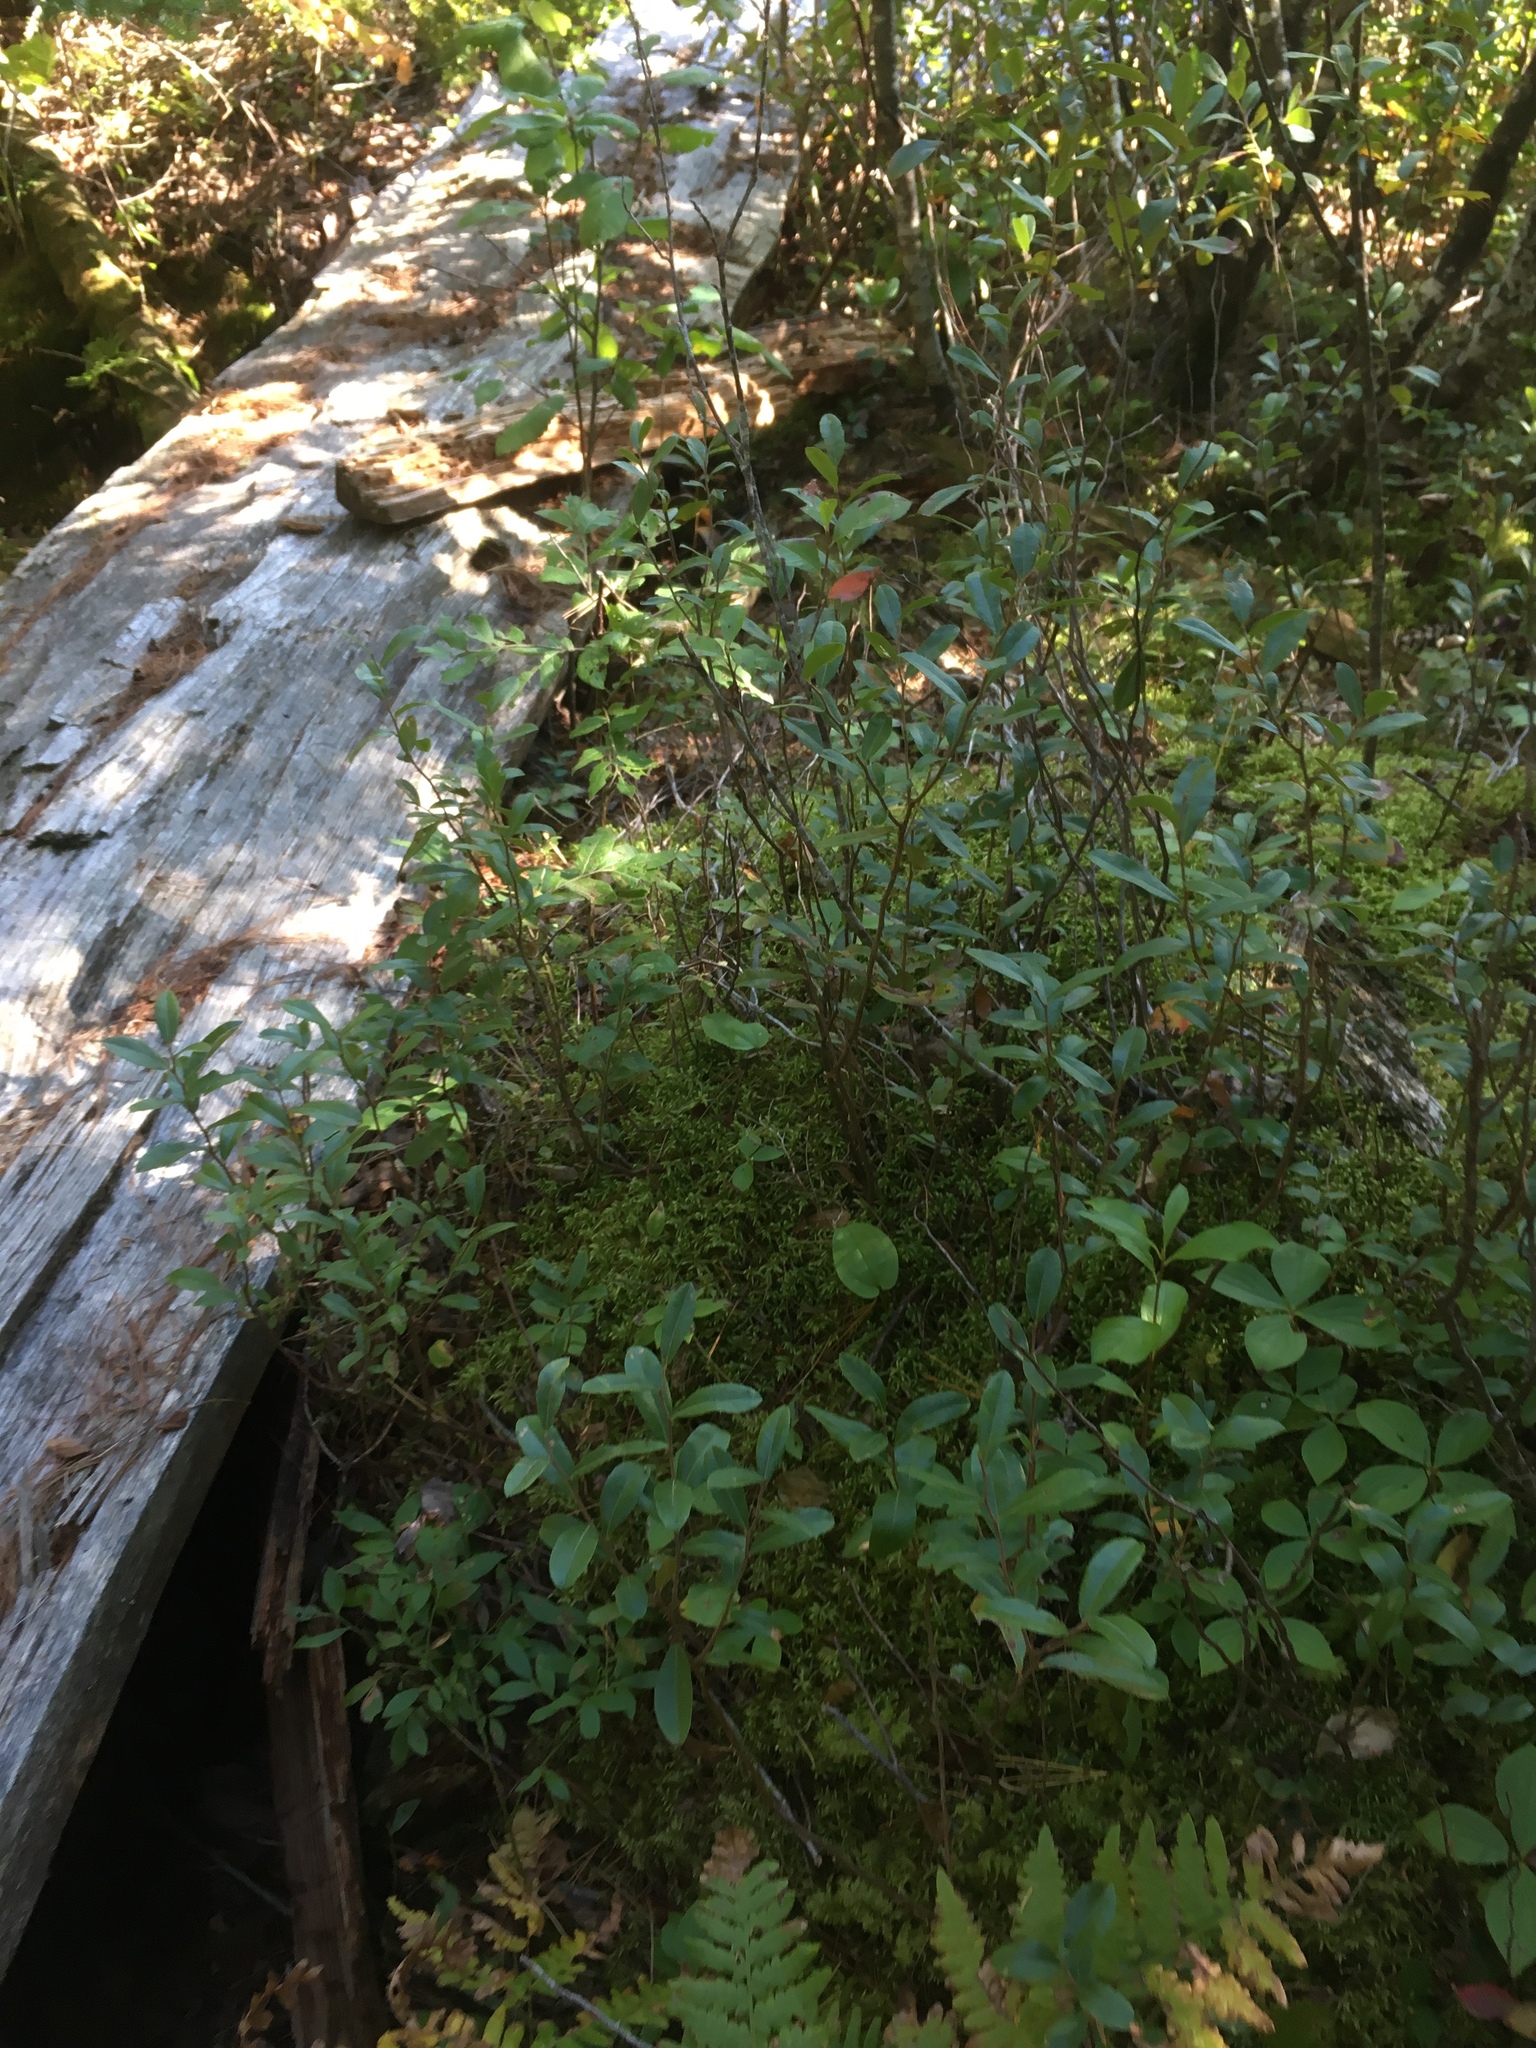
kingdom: Plantae
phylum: Tracheophyta
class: Magnoliopsida
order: Ericales
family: Ericaceae
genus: Chamaedaphne
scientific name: Chamaedaphne calyculata
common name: Leatherleaf
